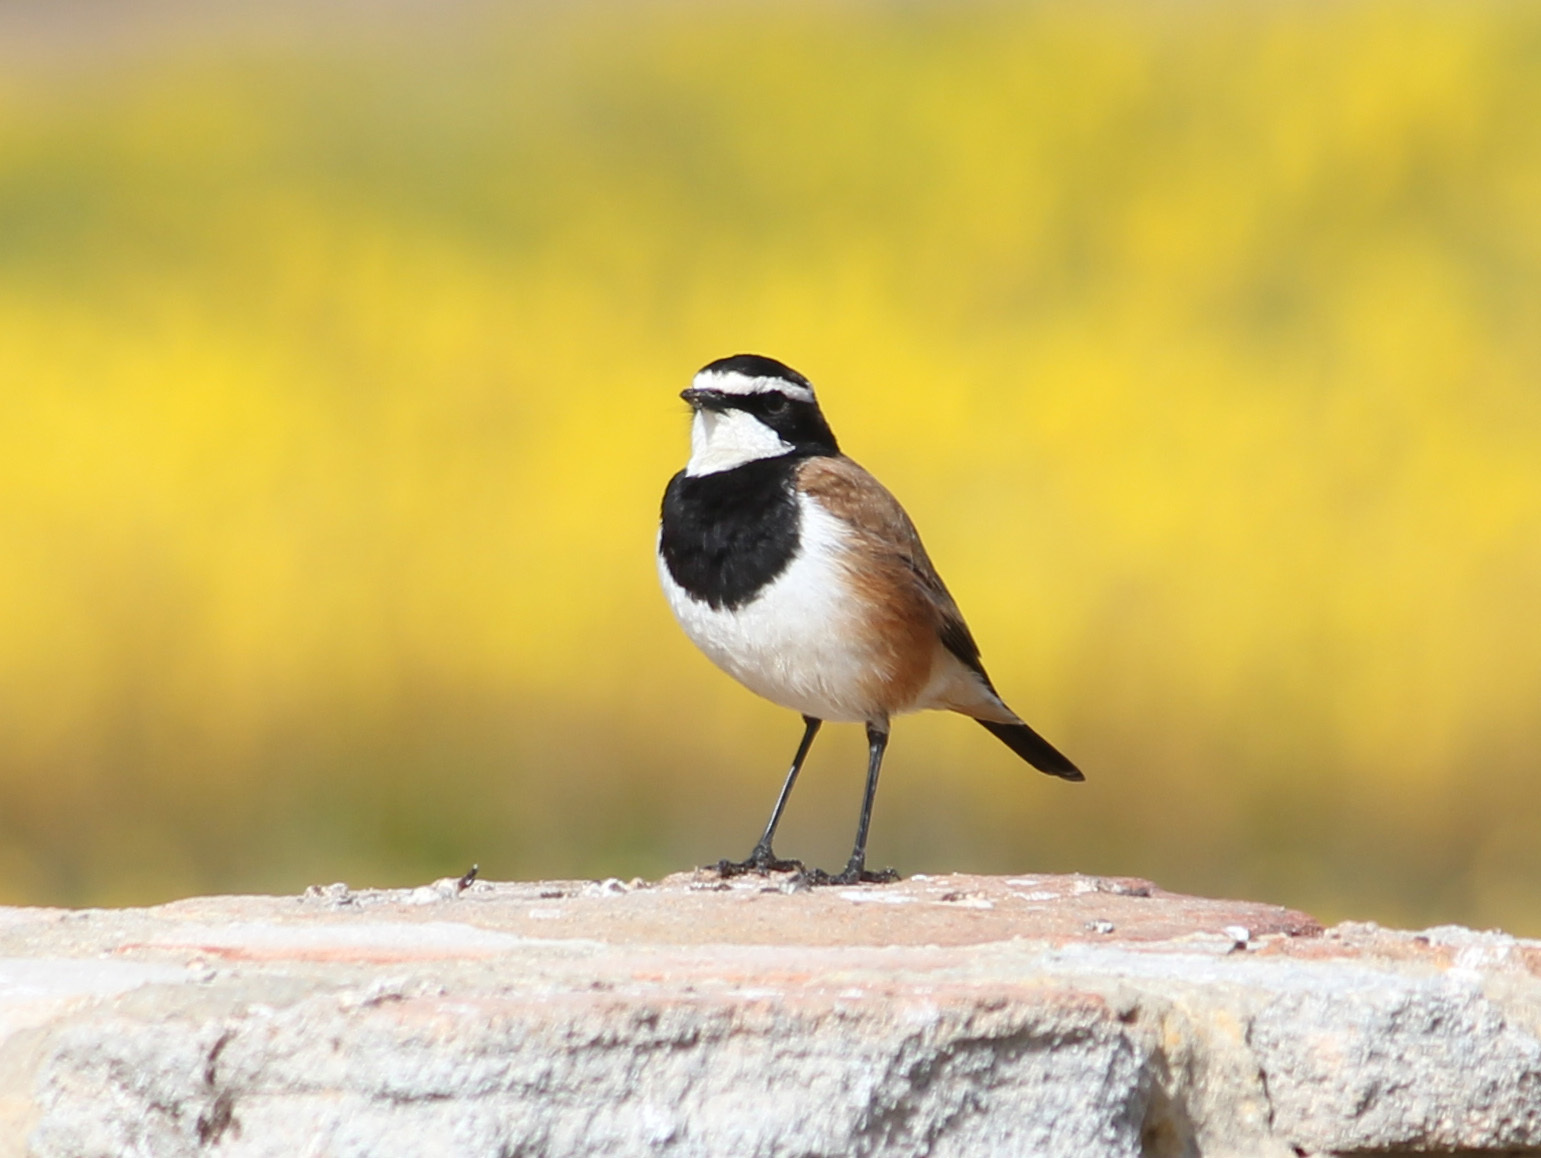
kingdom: Animalia
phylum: Chordata
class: Aves
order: Passeriformes
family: Muscicapidae
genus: Oenanthe
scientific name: Oenanthe pileata
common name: Capped wheatear
